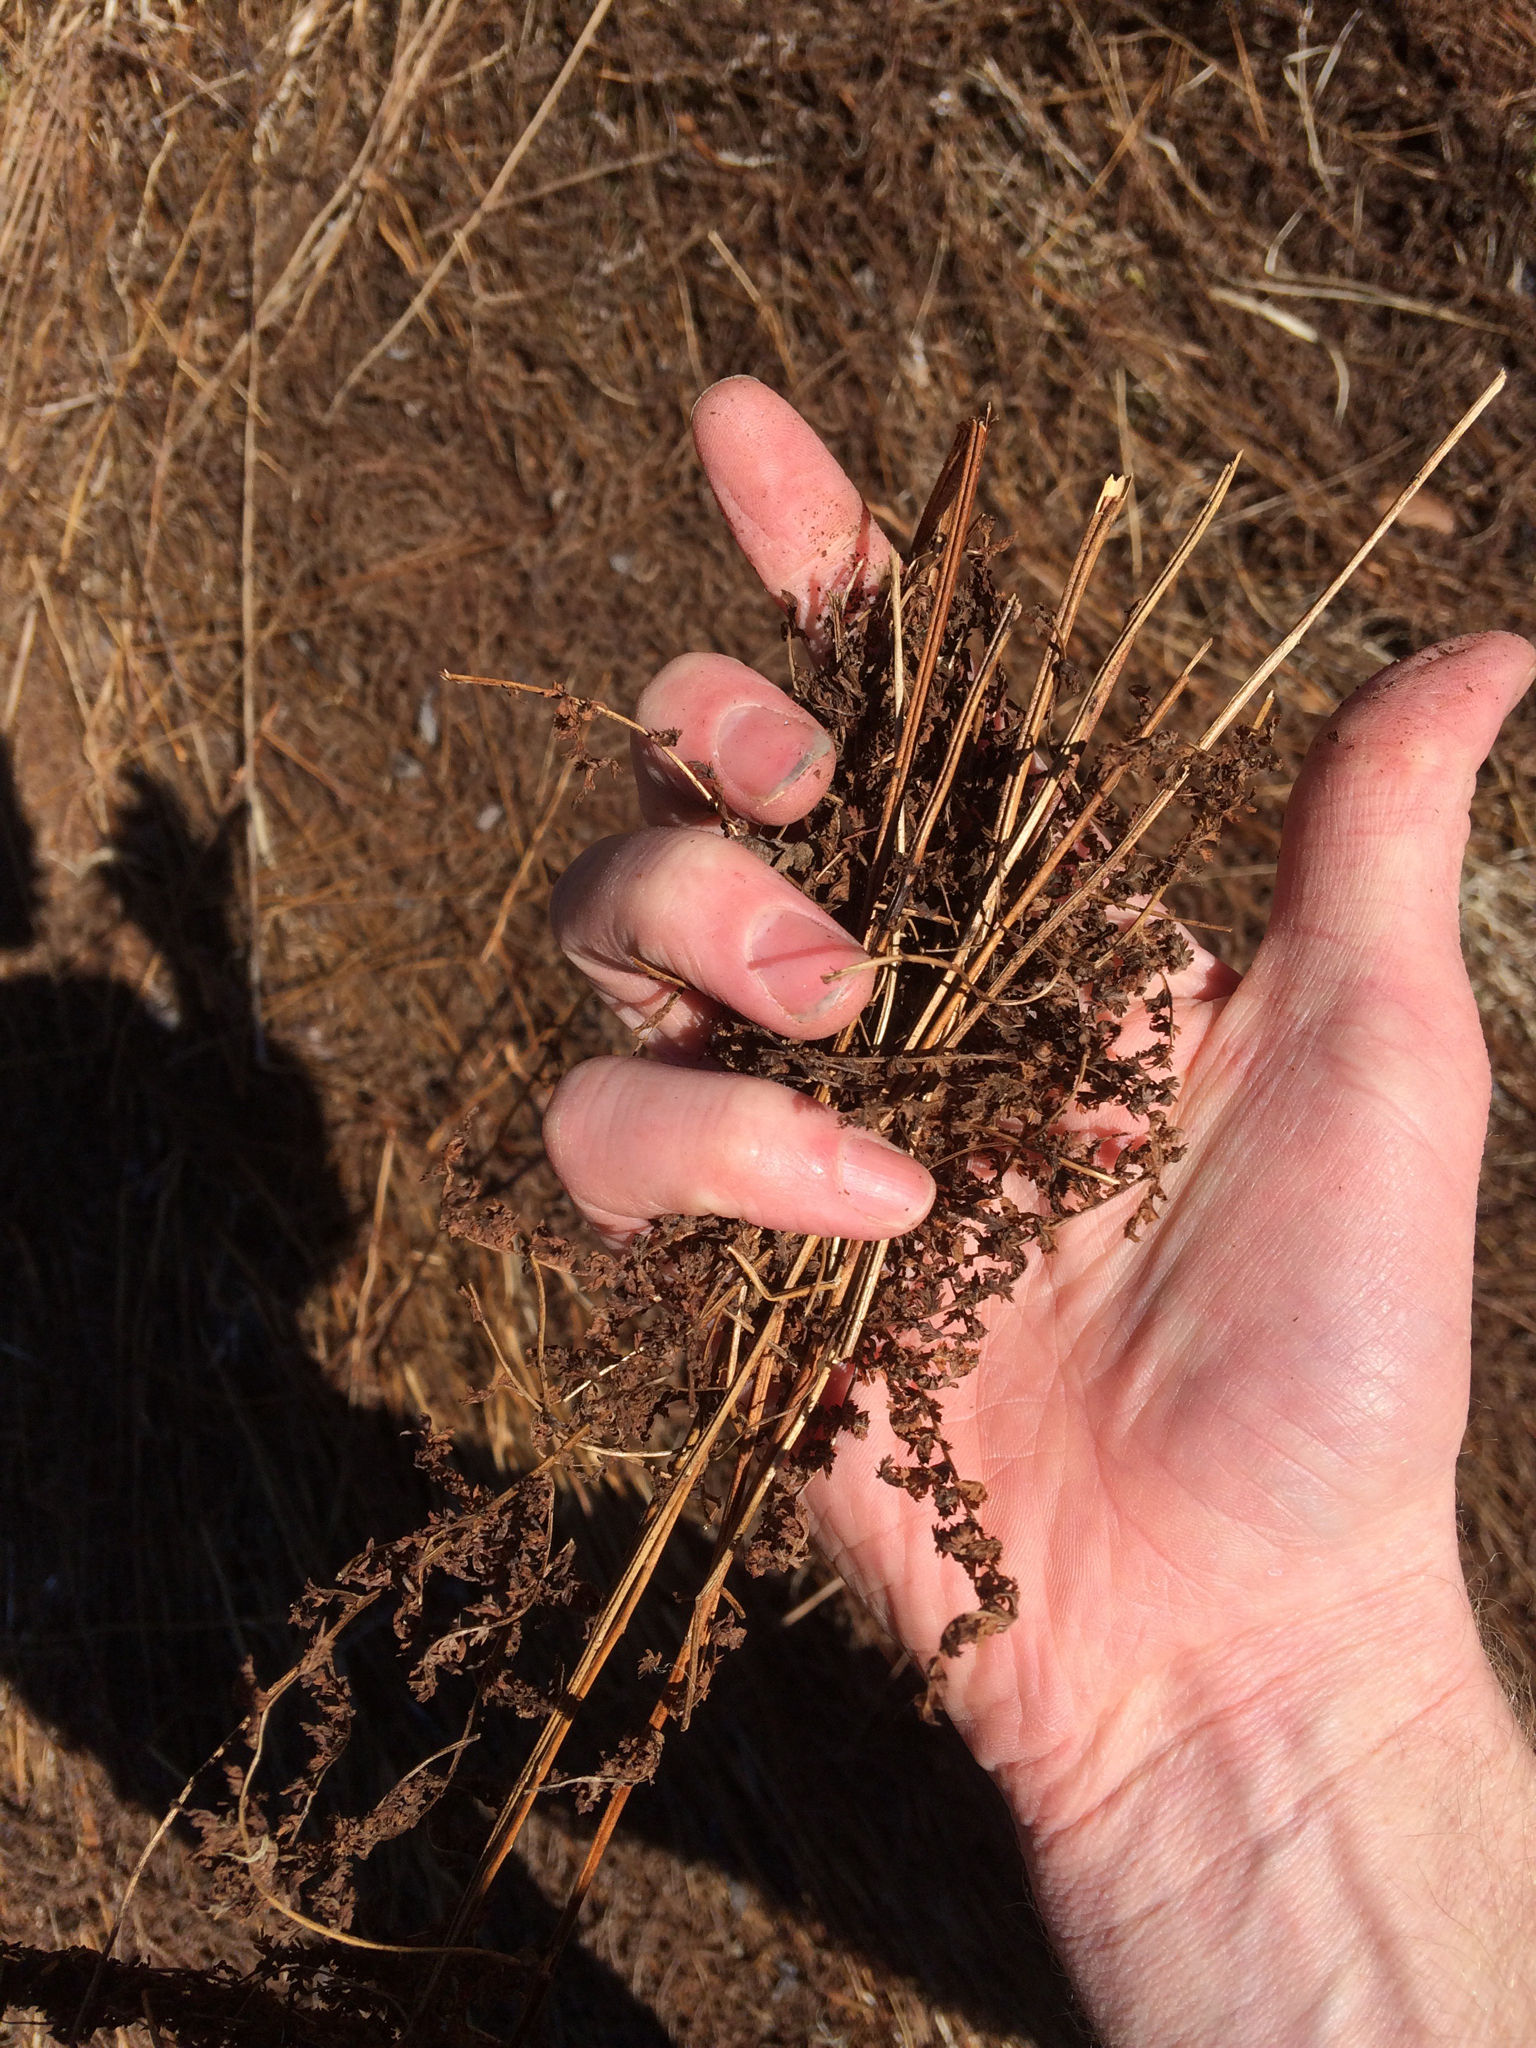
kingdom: Plantae
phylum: Tracheophyta
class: Polypodiopsida
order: Polypodiales
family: Dennstaedtiaceae
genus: Sitobolium
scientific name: Sitobolium punctilobum
